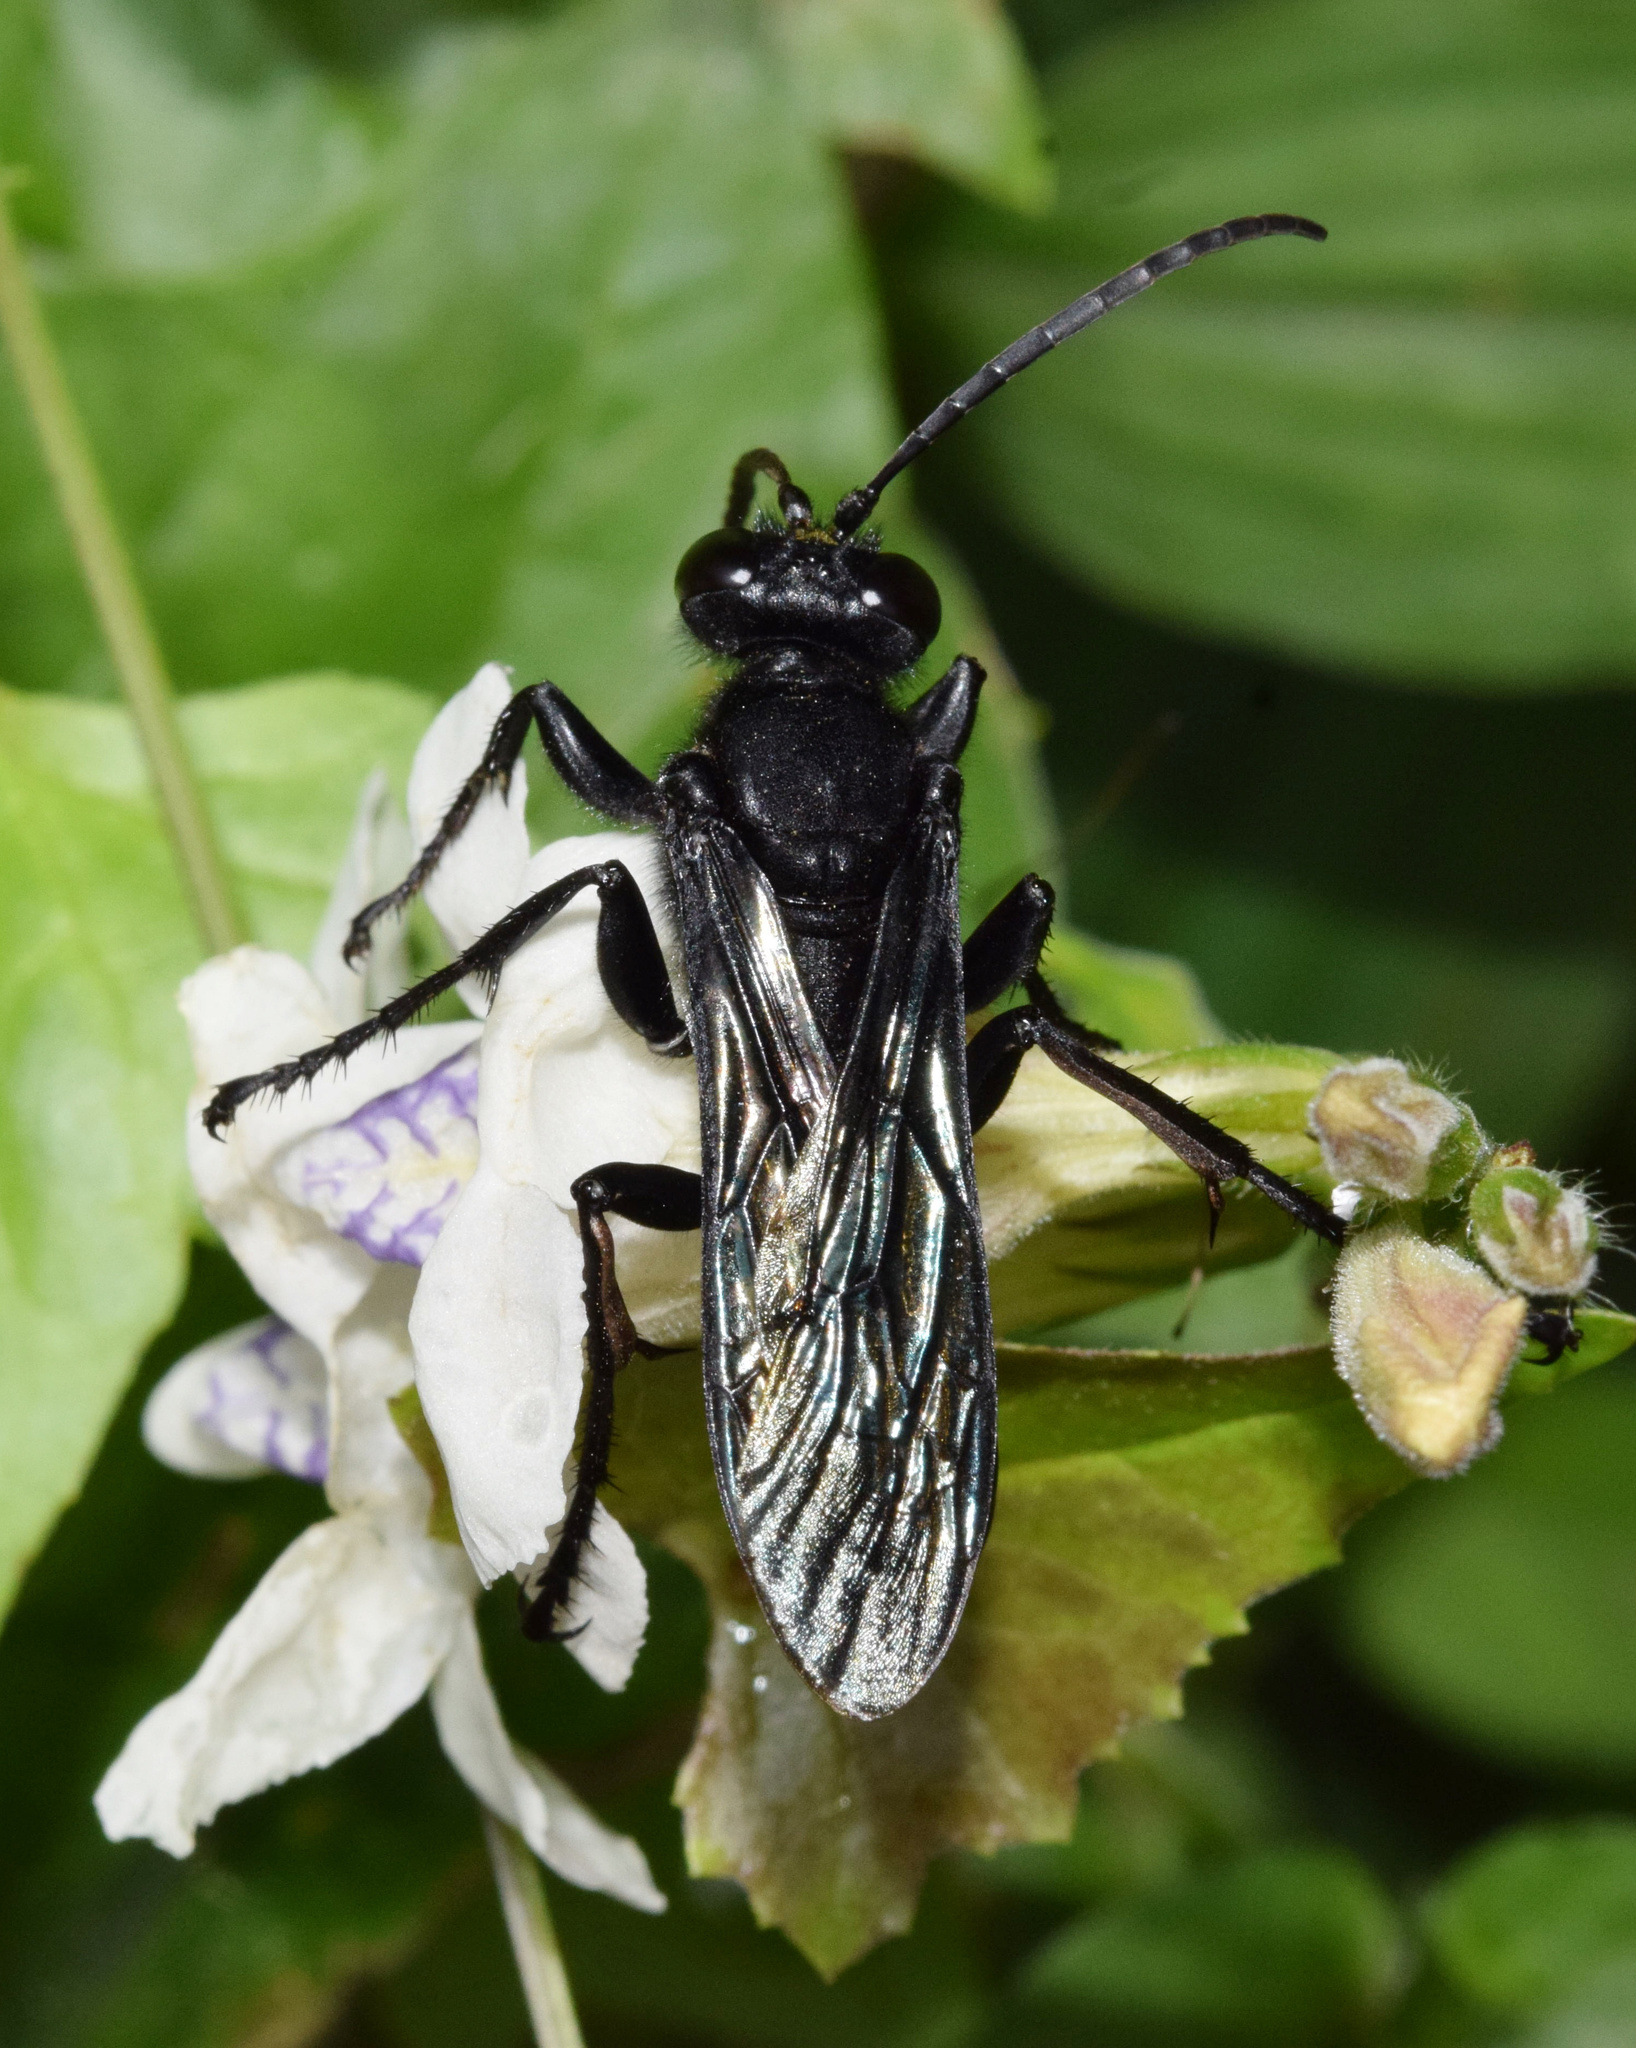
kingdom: Animalia
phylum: Arthropoda
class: Insecta
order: Hymenoptera
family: Sphecidae
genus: Sphex
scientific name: Sphex nigrohirtus
